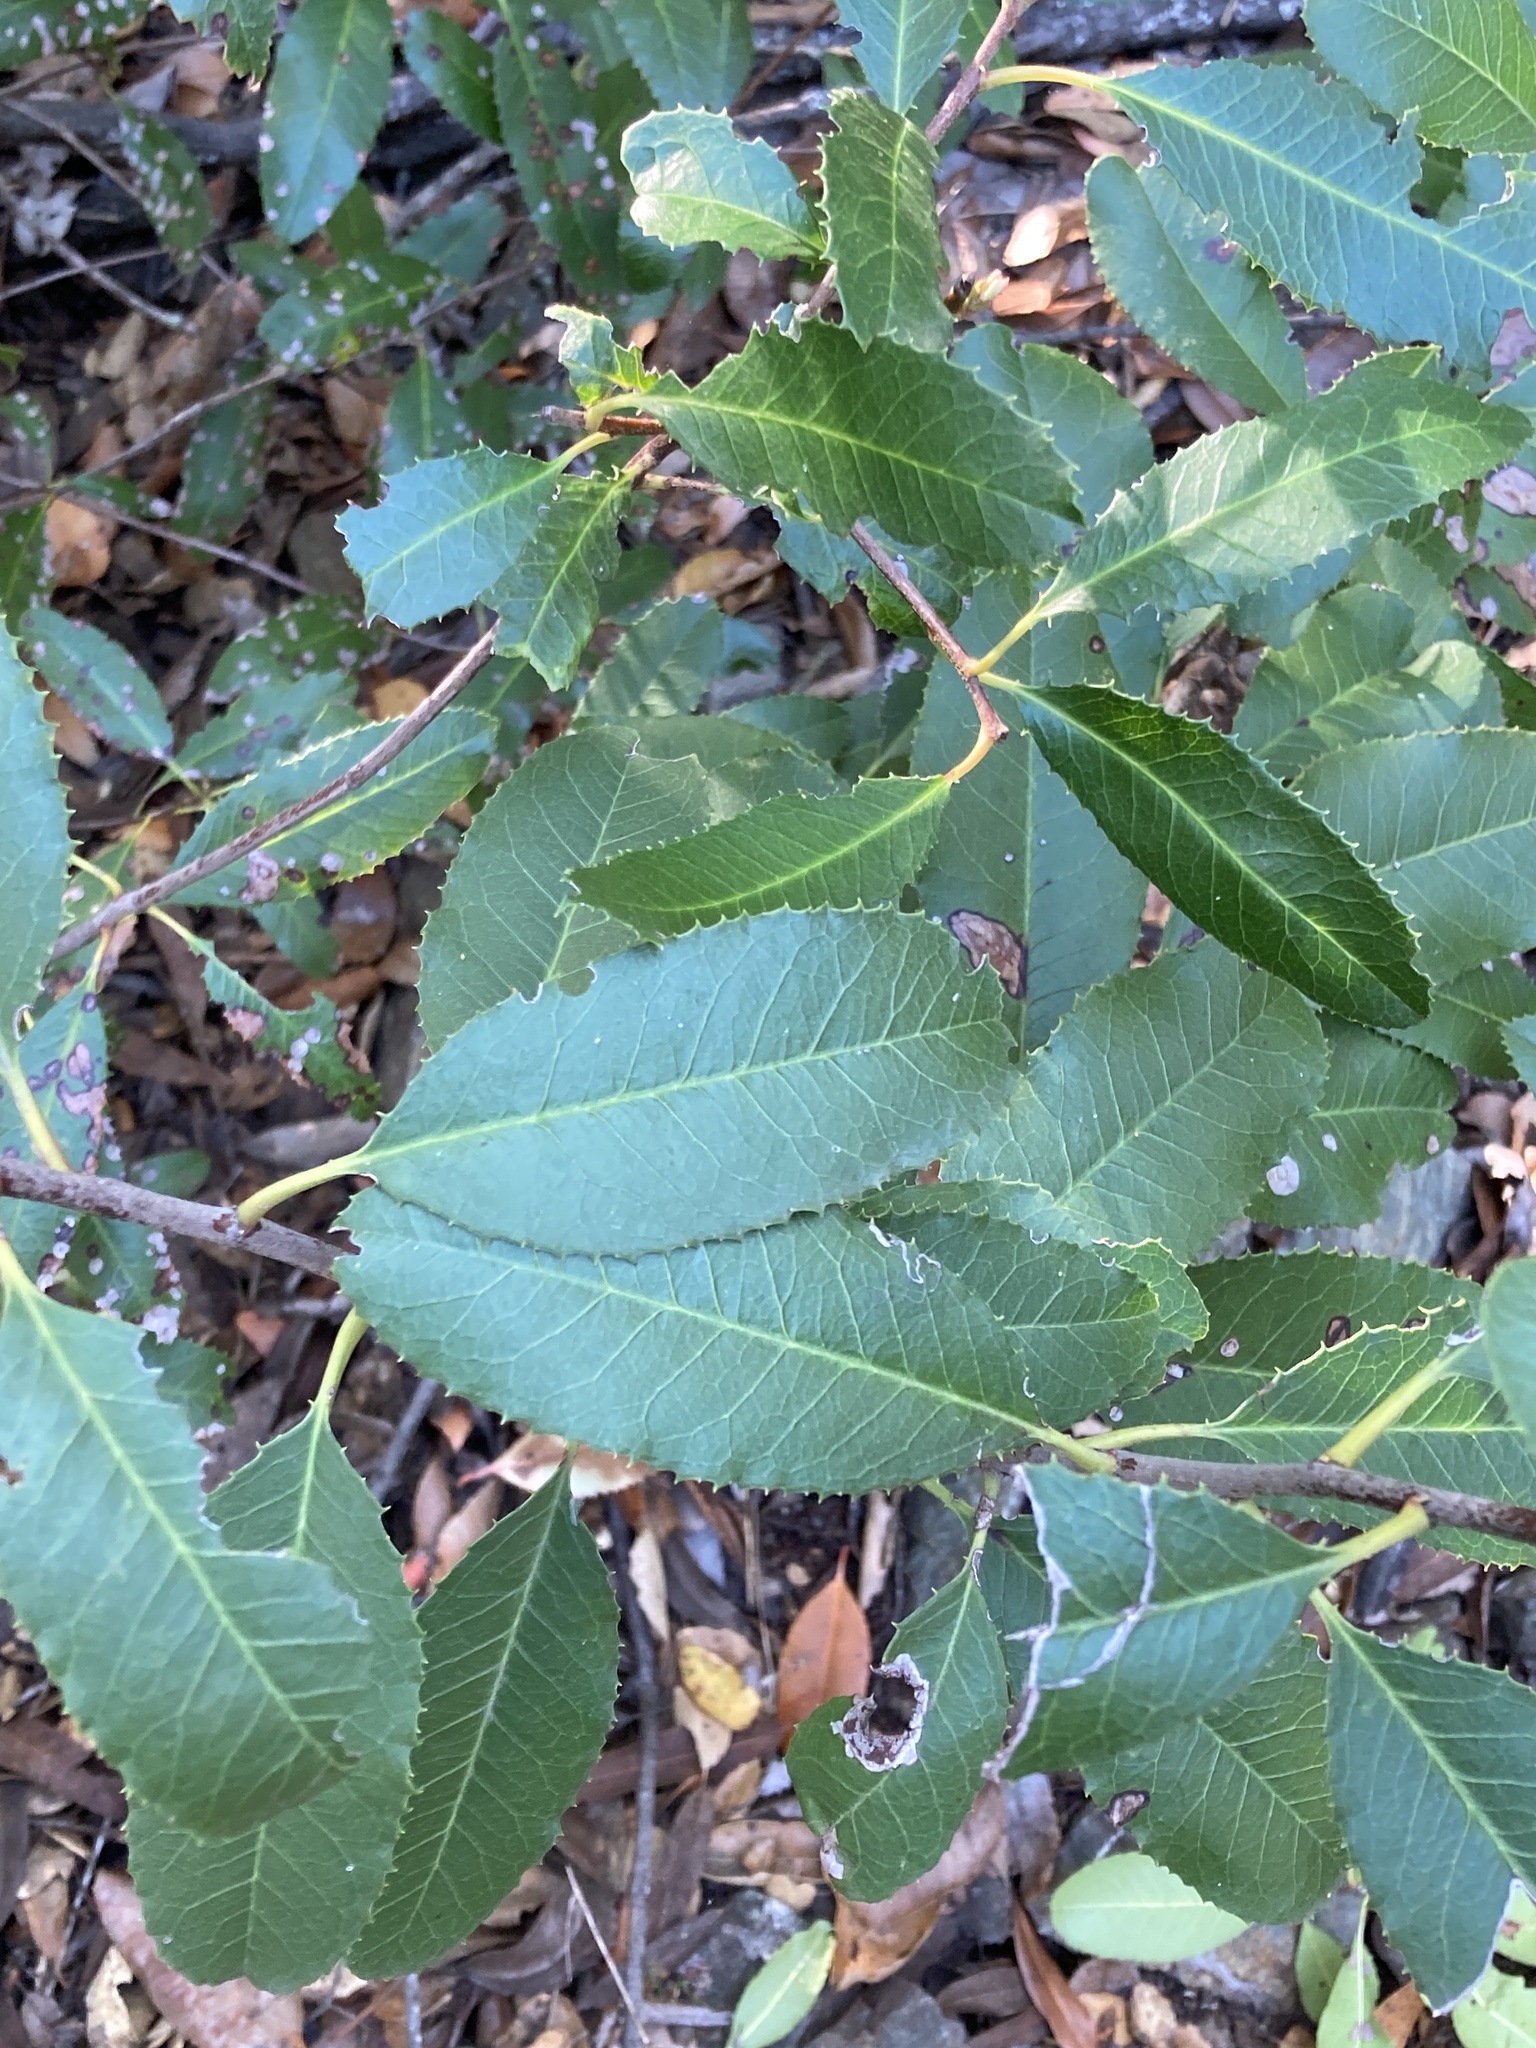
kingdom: Plantae
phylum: Tracheophyta
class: Magnoliopsida
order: Rosales
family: Rosaceae
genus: Heteromeles
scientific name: Heteromeles arbutifolia
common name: California-holly
